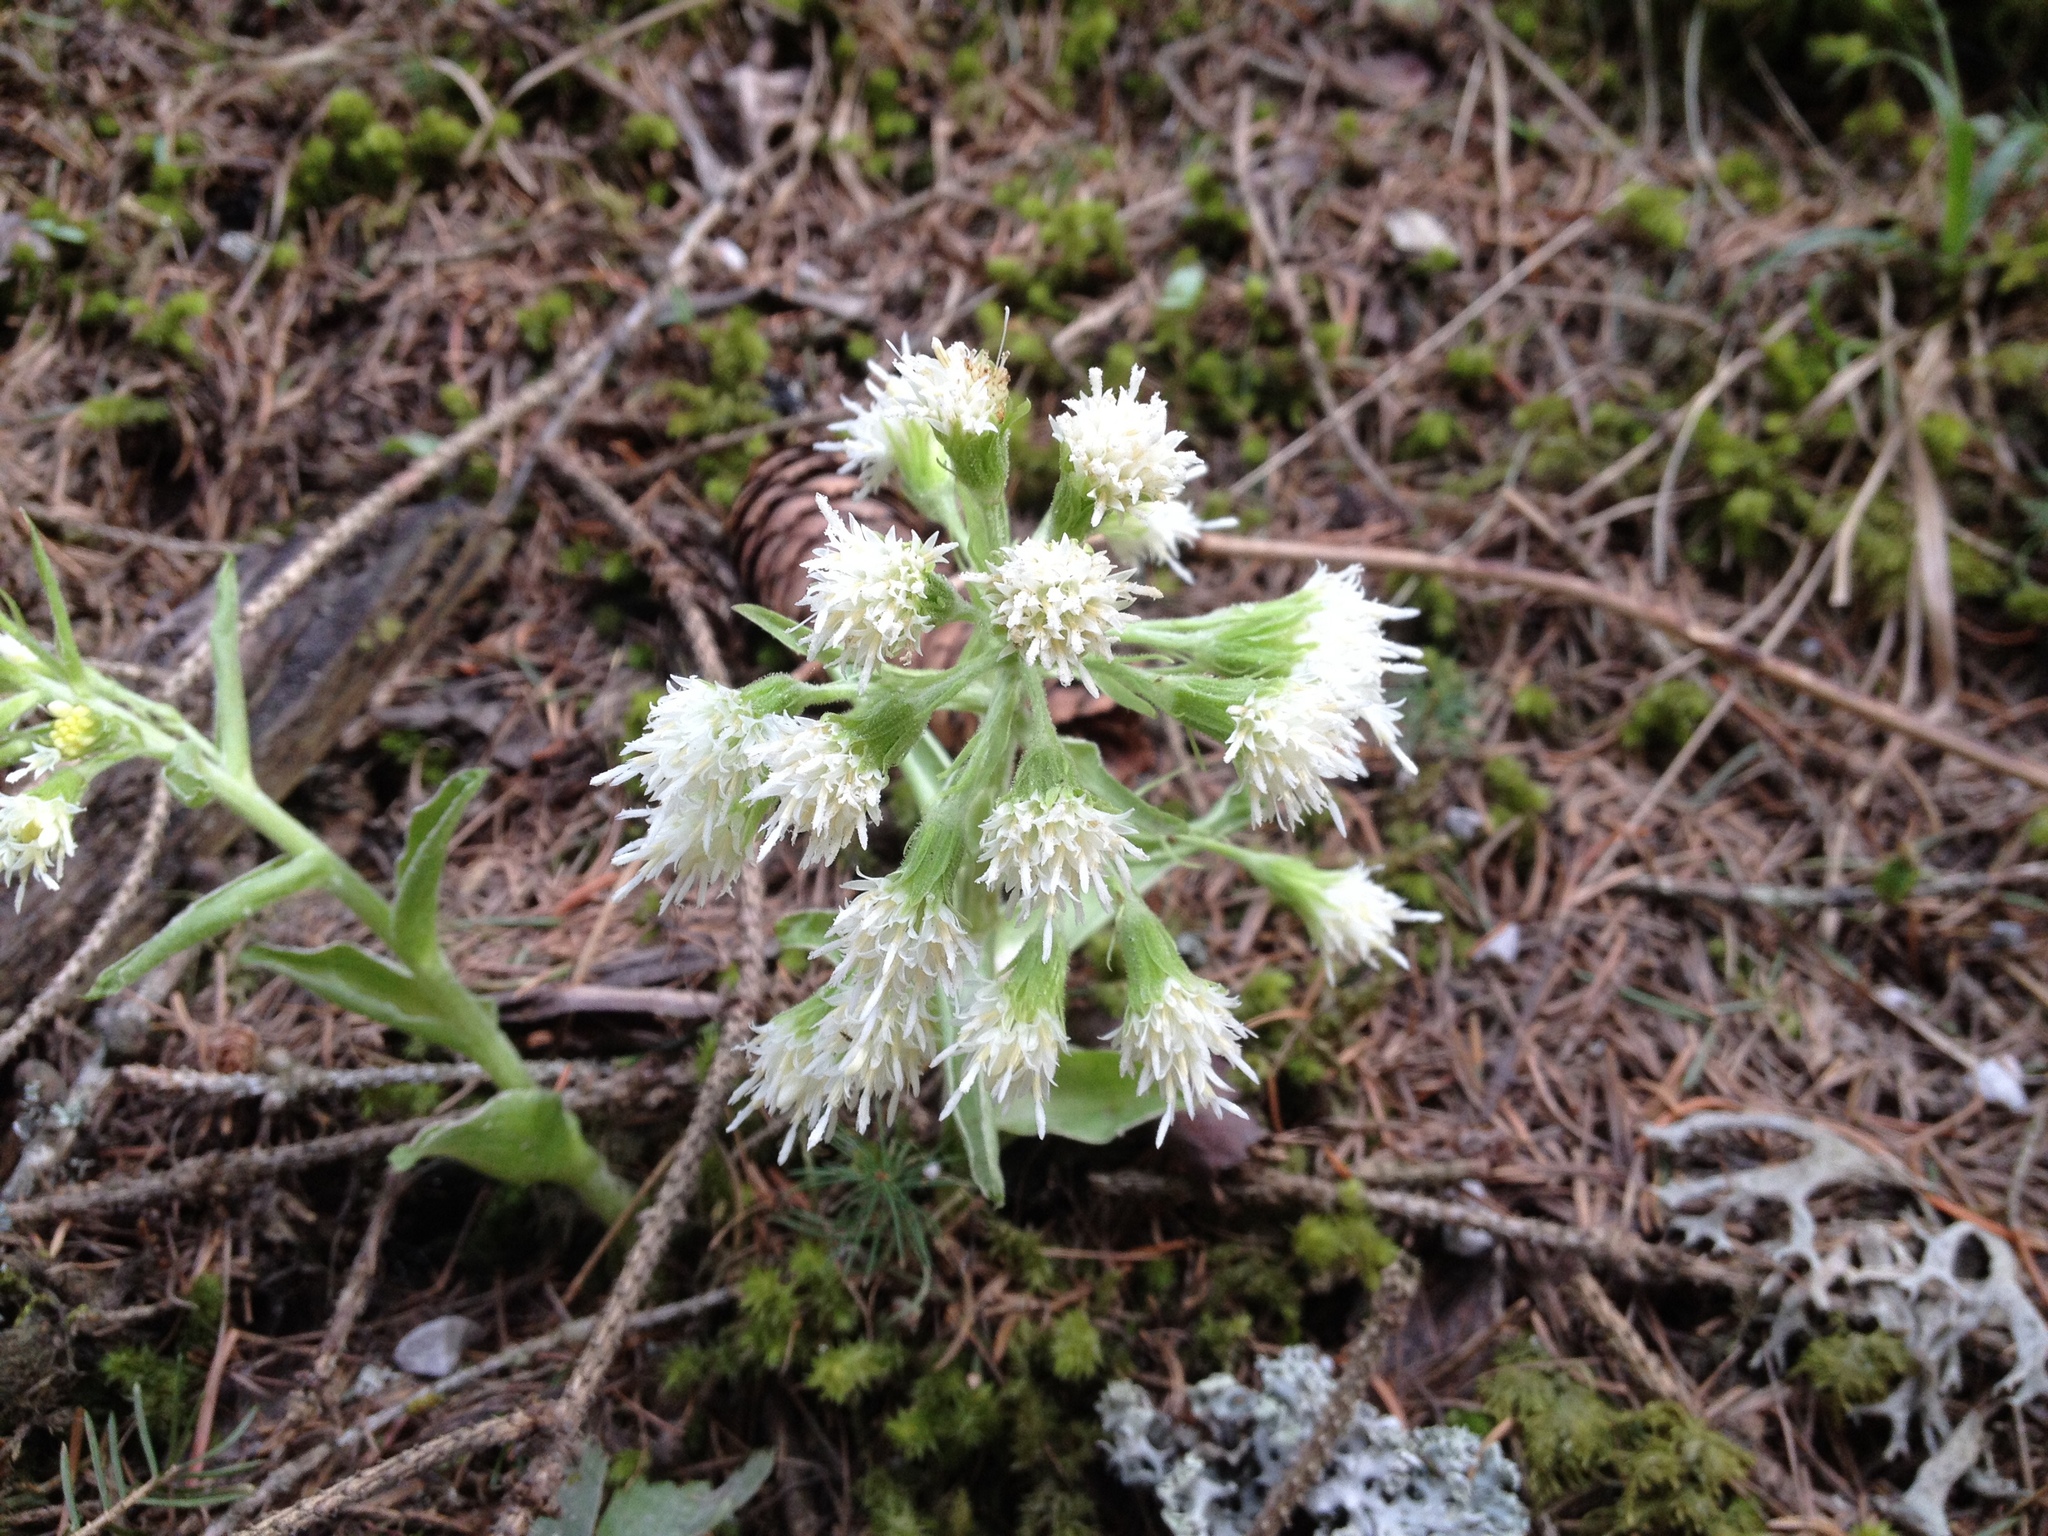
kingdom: Plantae
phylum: Tracheophyta
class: Magnoliopsida
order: Asterales
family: Asteraceae
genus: Petasites
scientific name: Petasites albus
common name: White butterbur
